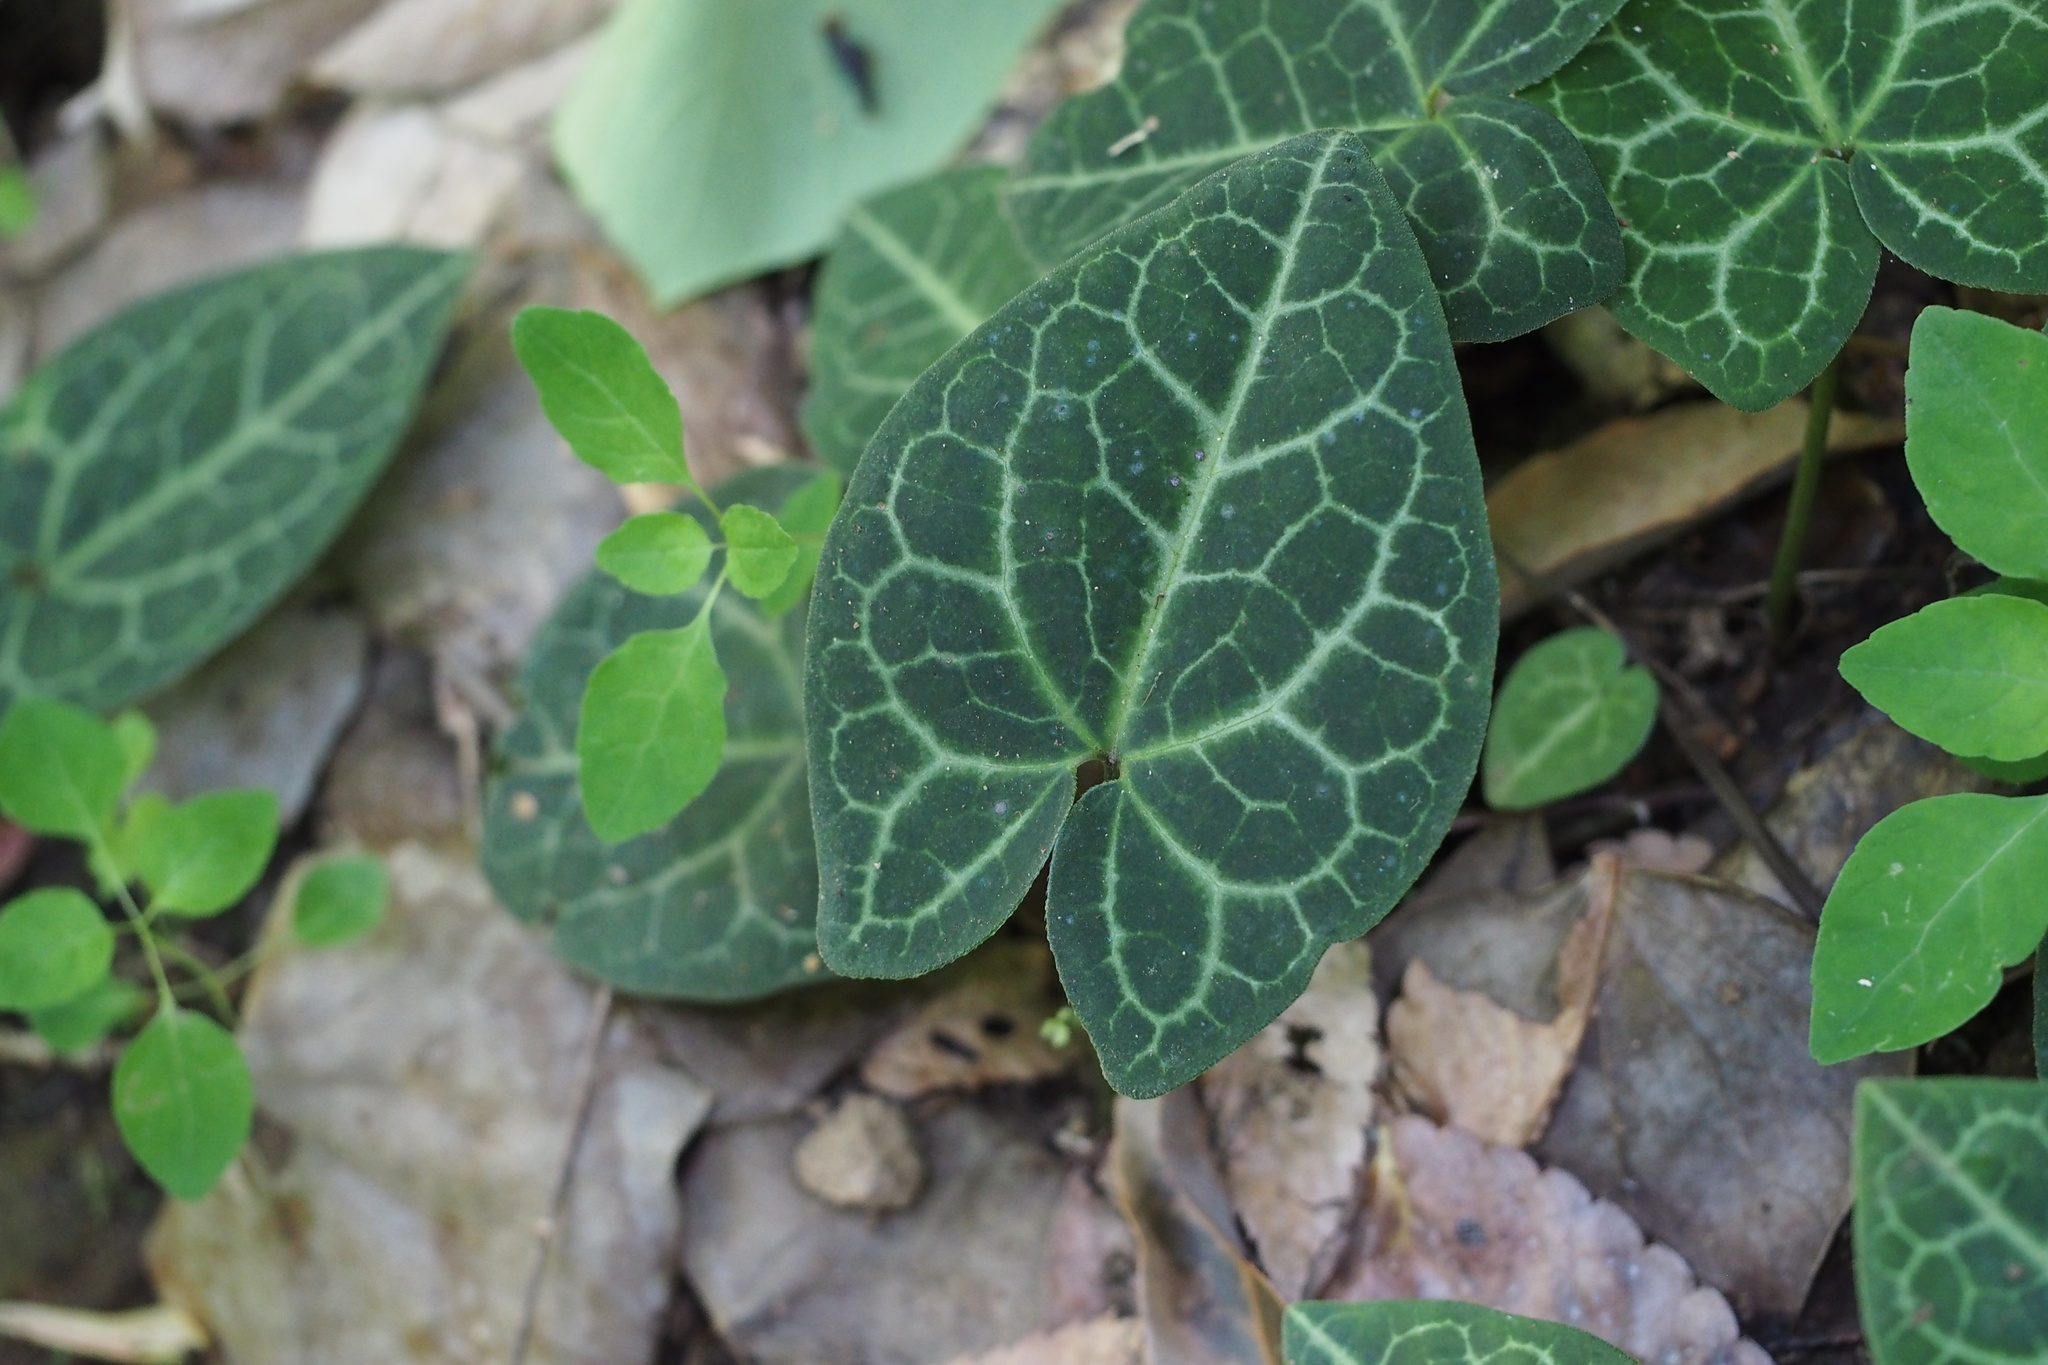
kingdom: Plantae
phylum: Tracheophyta
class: Magnoliopsida
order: Piperales
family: Aristolochiaceae
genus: Asarum
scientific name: Asarum nipponicum
